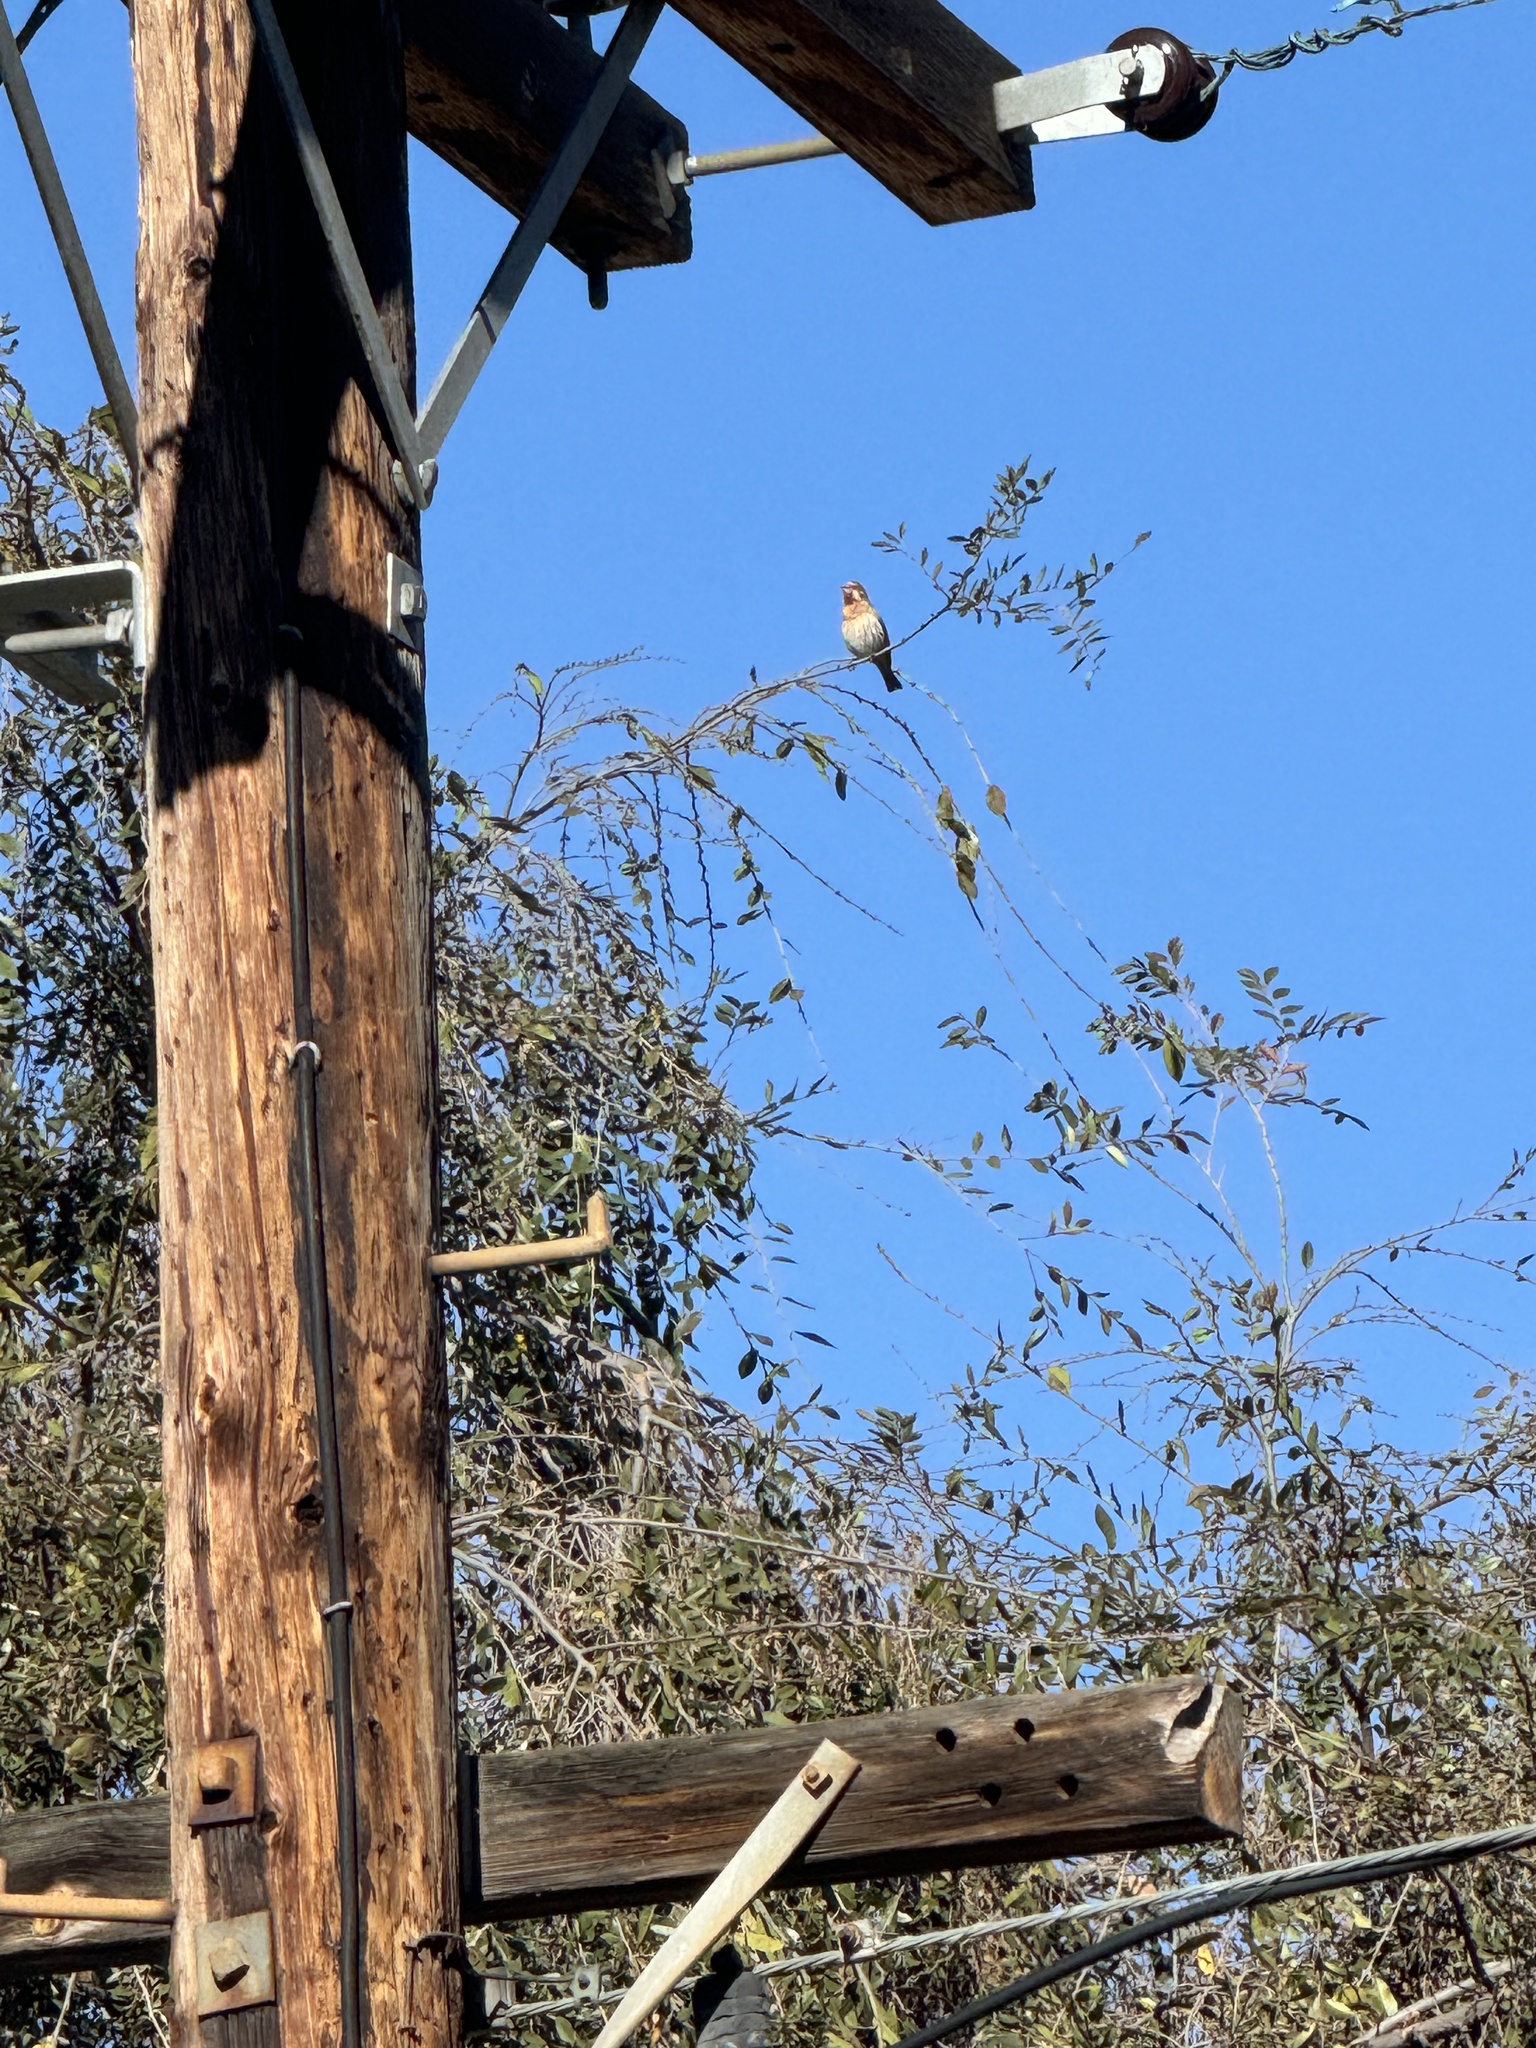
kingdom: Animalia
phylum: Chordata
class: Aves
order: Passeriformes
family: Fringillidae
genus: Haemorhous
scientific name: Haemorhous mexicanus
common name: House finch
